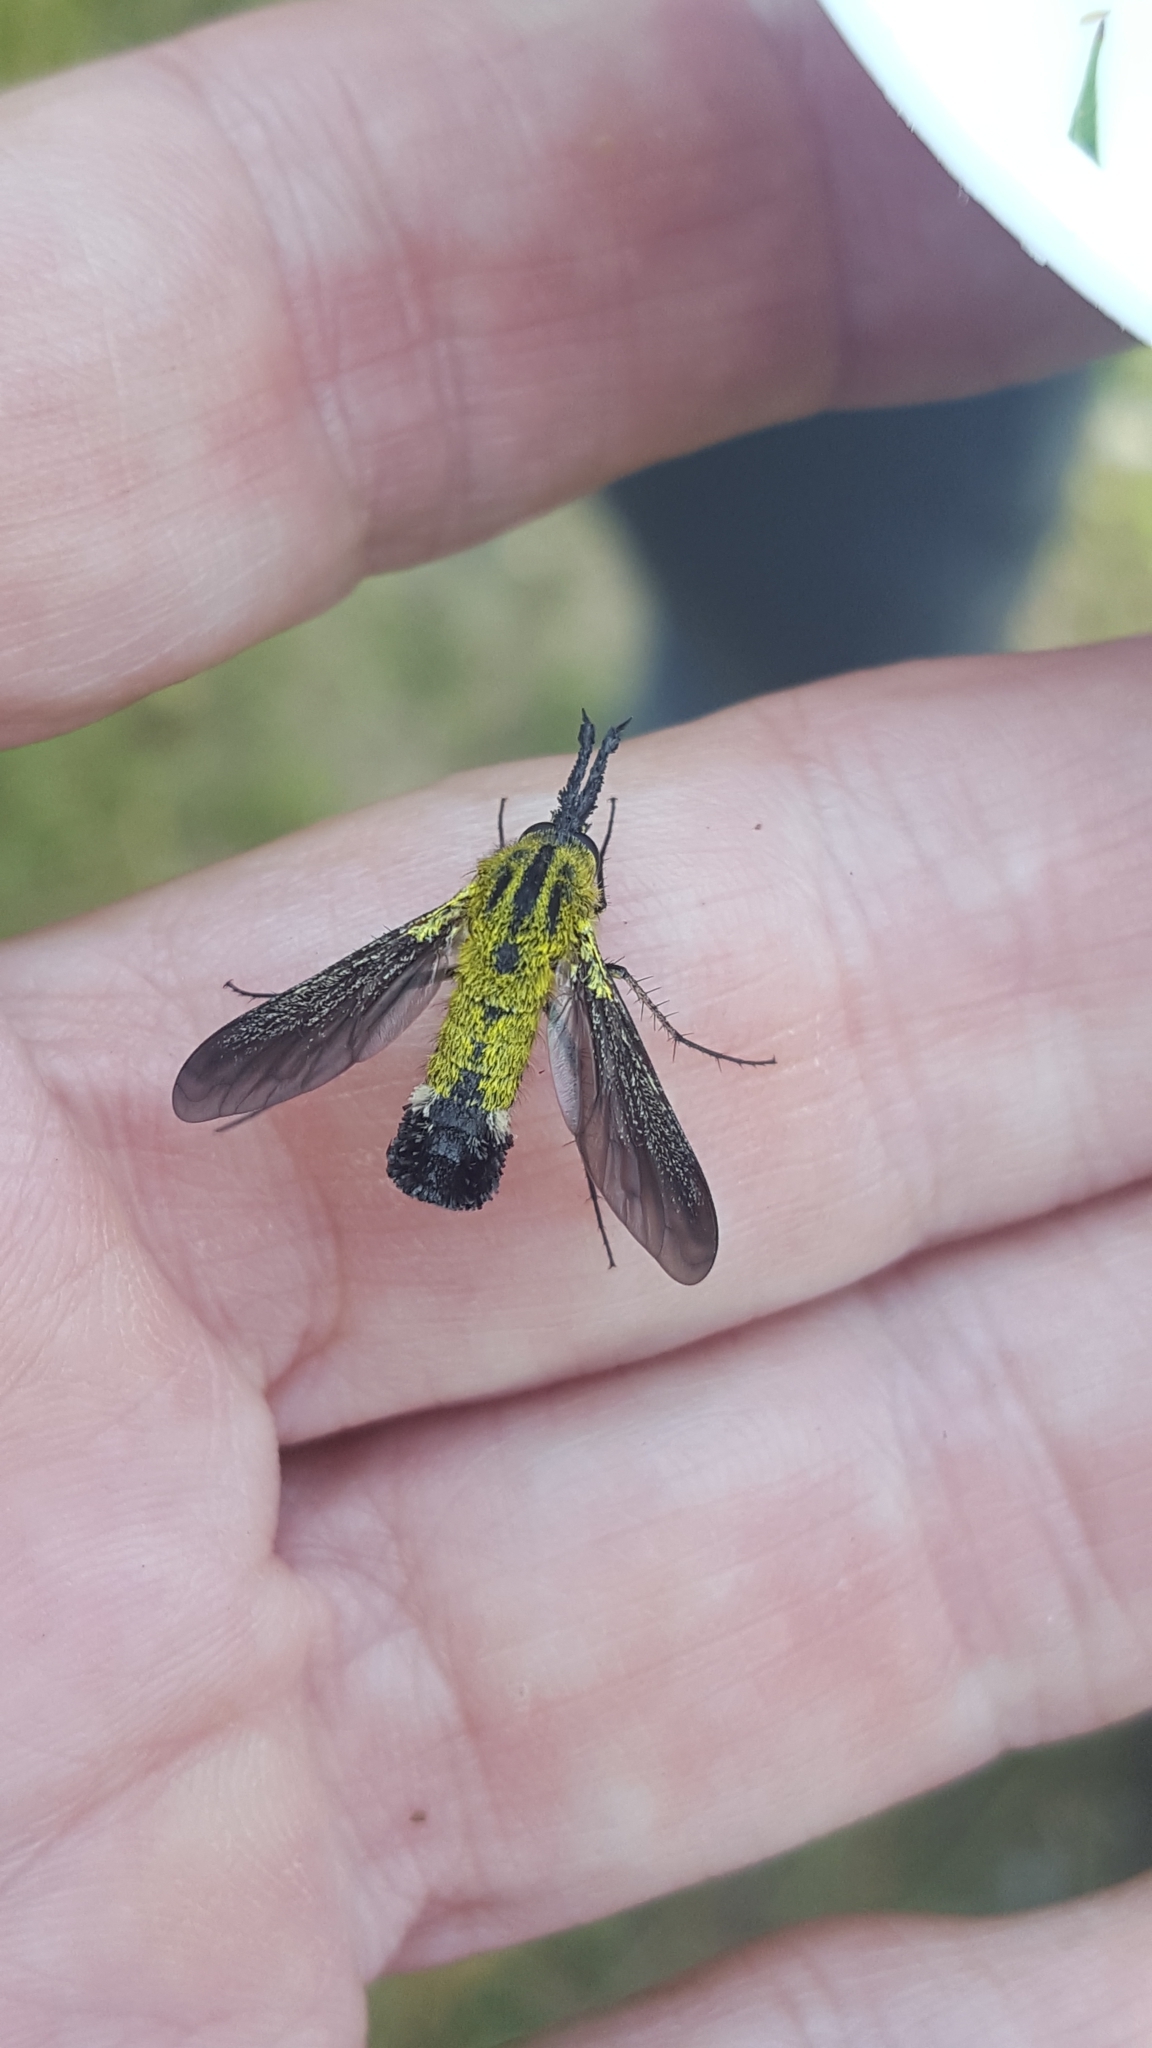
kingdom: Animalia
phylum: Arthropoda
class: Insecta
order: Diptera
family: Bombyliidae
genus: Lepidophora
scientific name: Lepidophora lutea
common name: Hunchback bee fly
